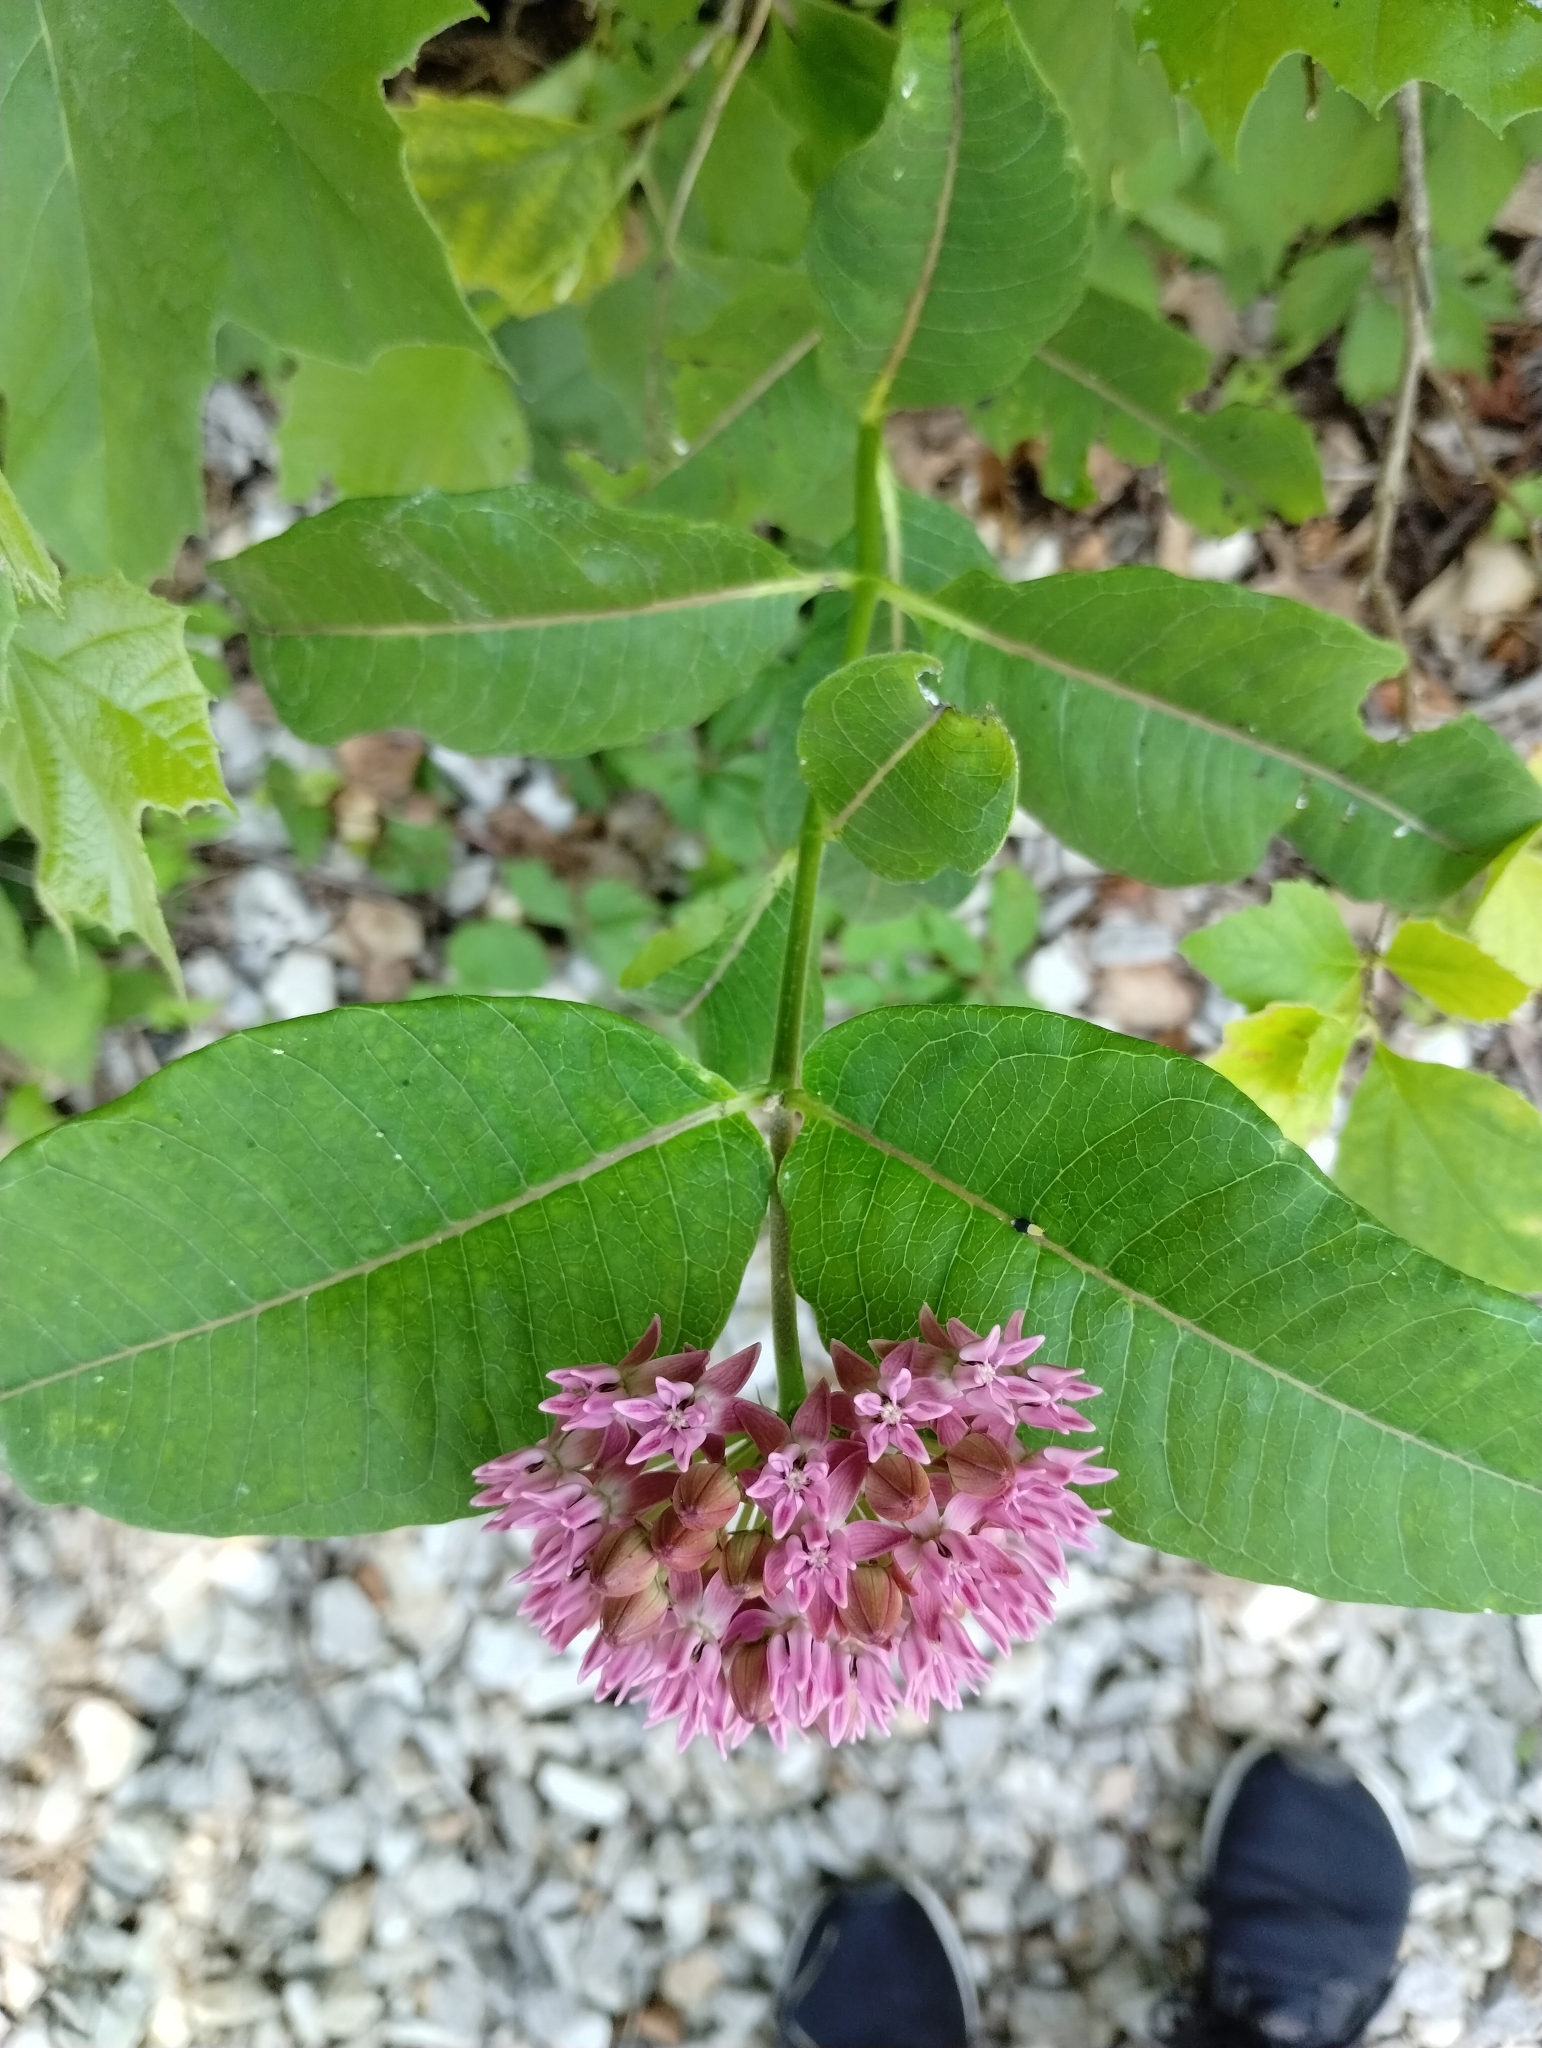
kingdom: Plantae
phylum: Tracheophyta
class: Magnoliopsida
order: Gentianales
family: Apocynaceae
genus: Asclepias
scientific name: Asclepias purpurascens
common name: Purple milkweed
